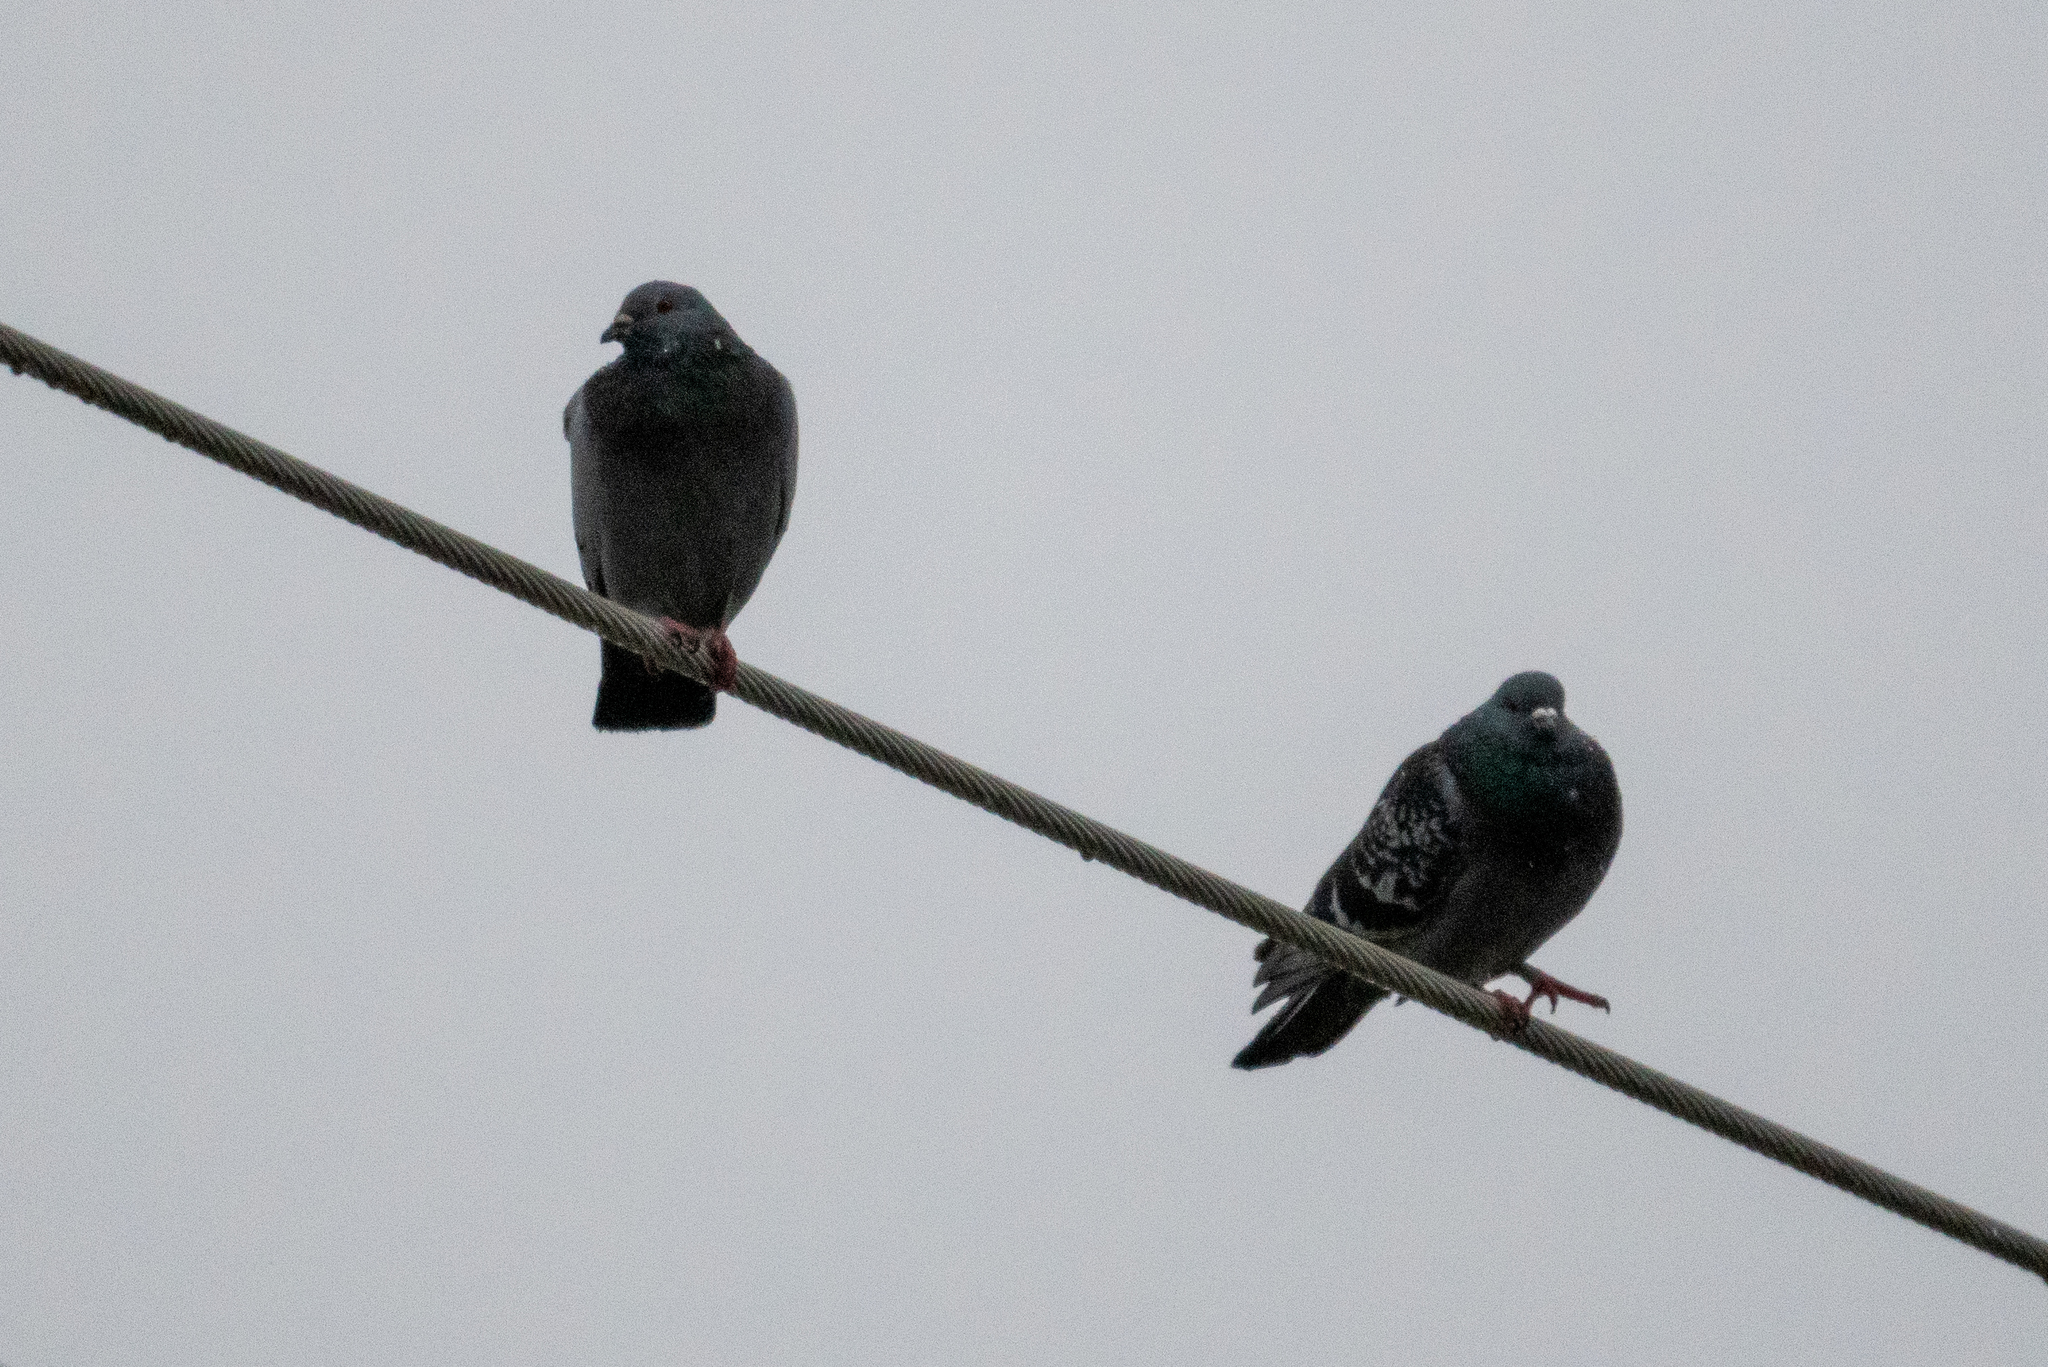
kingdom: Animalia
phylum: Chordata
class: Aves
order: Columbiformes
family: Columbidae
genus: Columba
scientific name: Columba livia
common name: Rock pigeon
